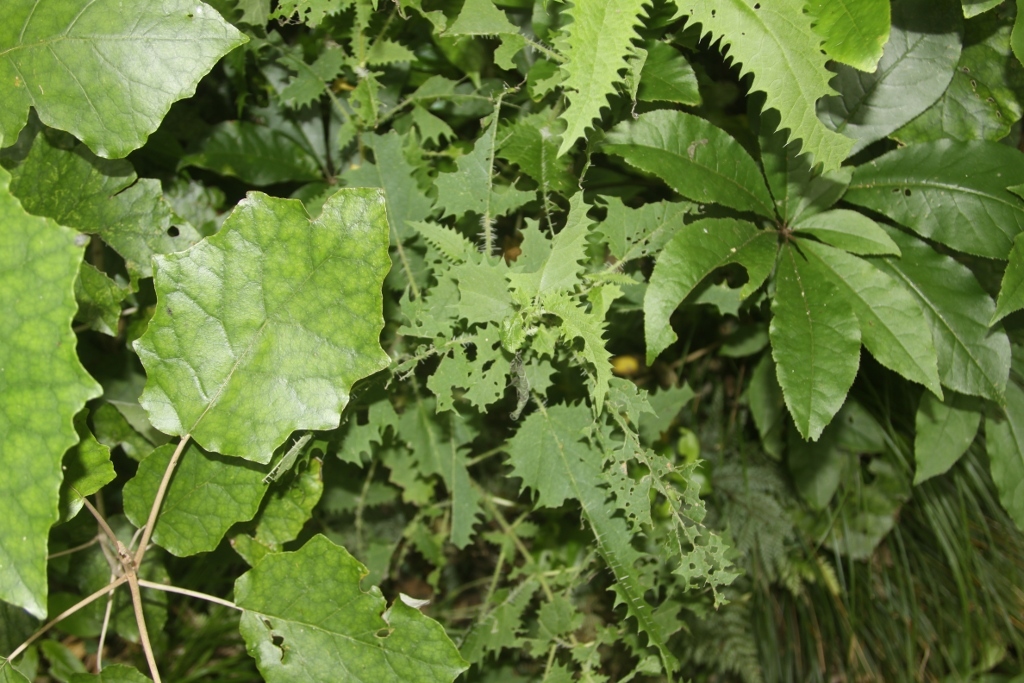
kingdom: Plantae
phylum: Tracheophyta
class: Magnoliopsida
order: Rosales
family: Urticaceae
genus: Urtica
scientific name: Urtica ferox
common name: Tree nettle
